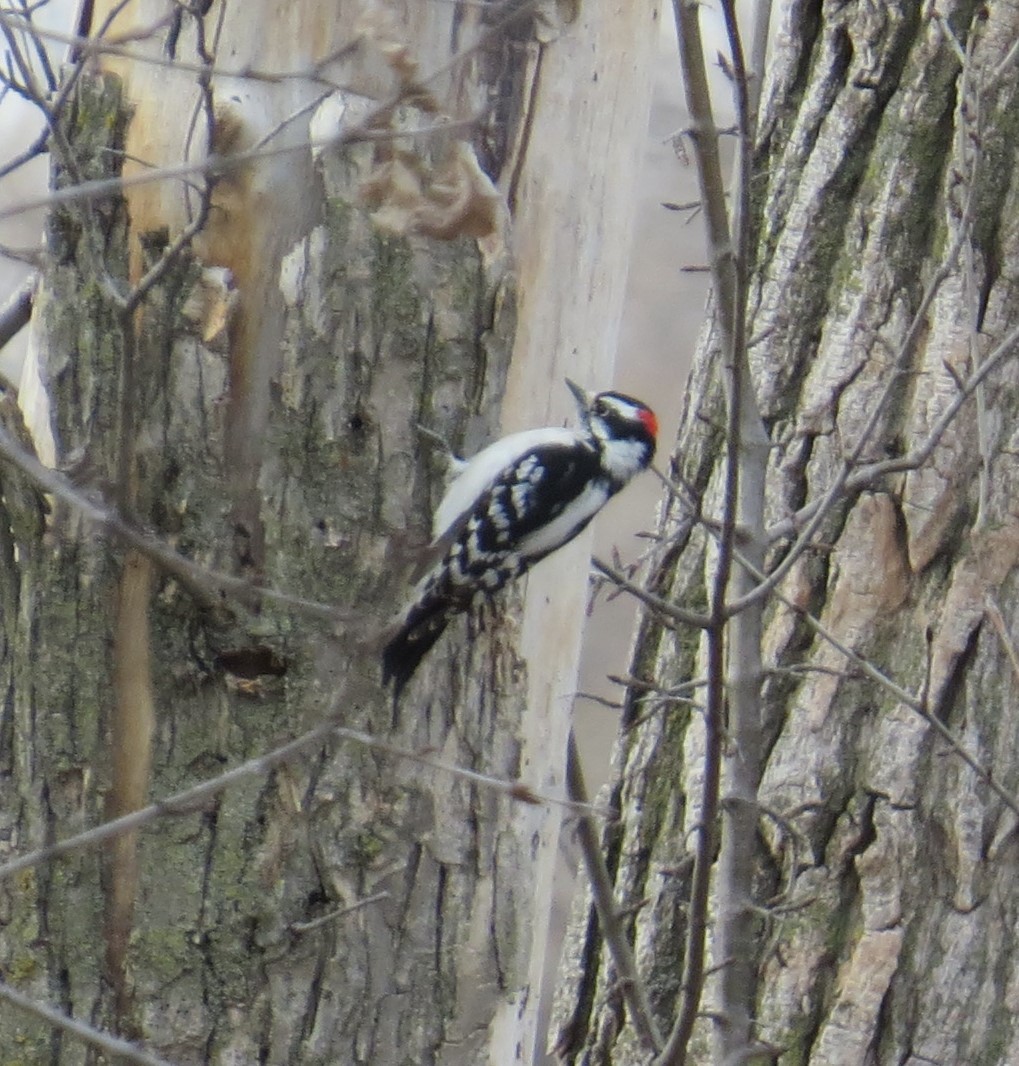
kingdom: Animalia
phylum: Chordata
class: Aves
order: Piciformes
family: Picidae
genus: Dryobates
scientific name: Dryobates pubescens
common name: Downy woodpecker
